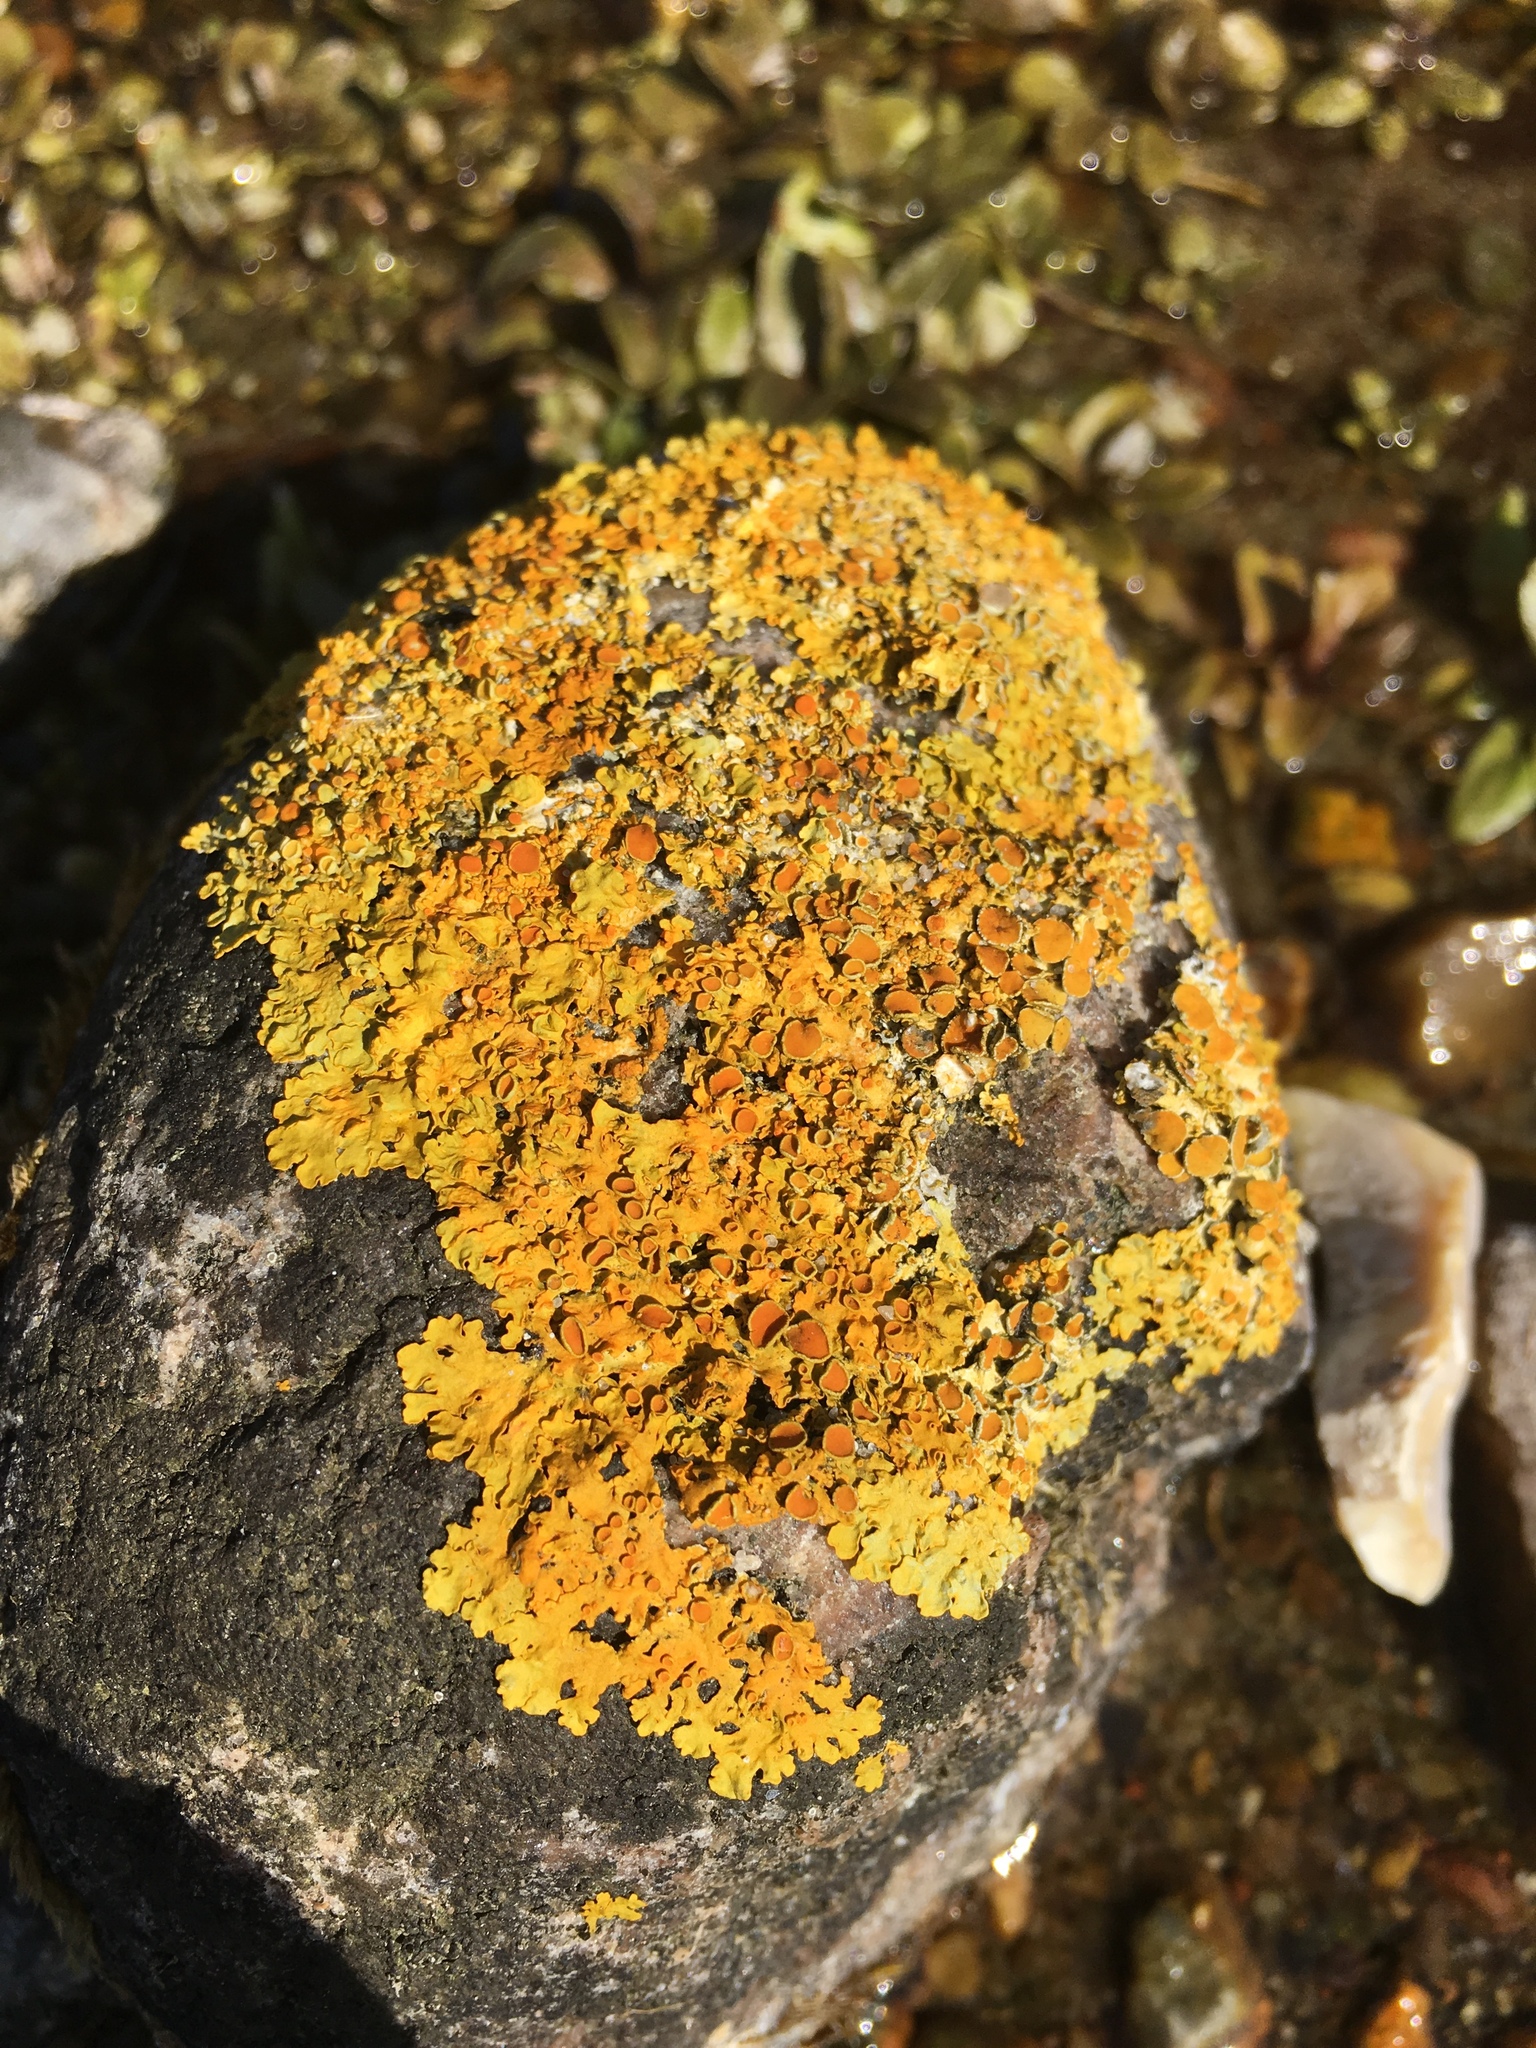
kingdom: Fungi
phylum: Ascomycota
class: Lecanoromycetes
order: Teloschistales
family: Teloschistaceae
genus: Xanthoria
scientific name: Xanthoria parietina
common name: Common orange lichen
